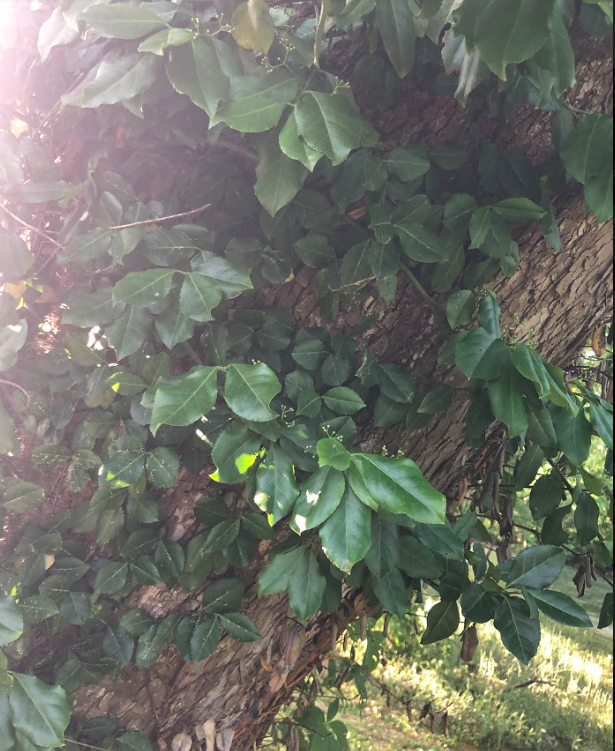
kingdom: Plantae
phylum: Tracheophyta
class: Magnoliopsida
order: Celastrales
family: Celastraceae
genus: Euonymus
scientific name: Euonymus fortunei
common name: Climbing euonymus
